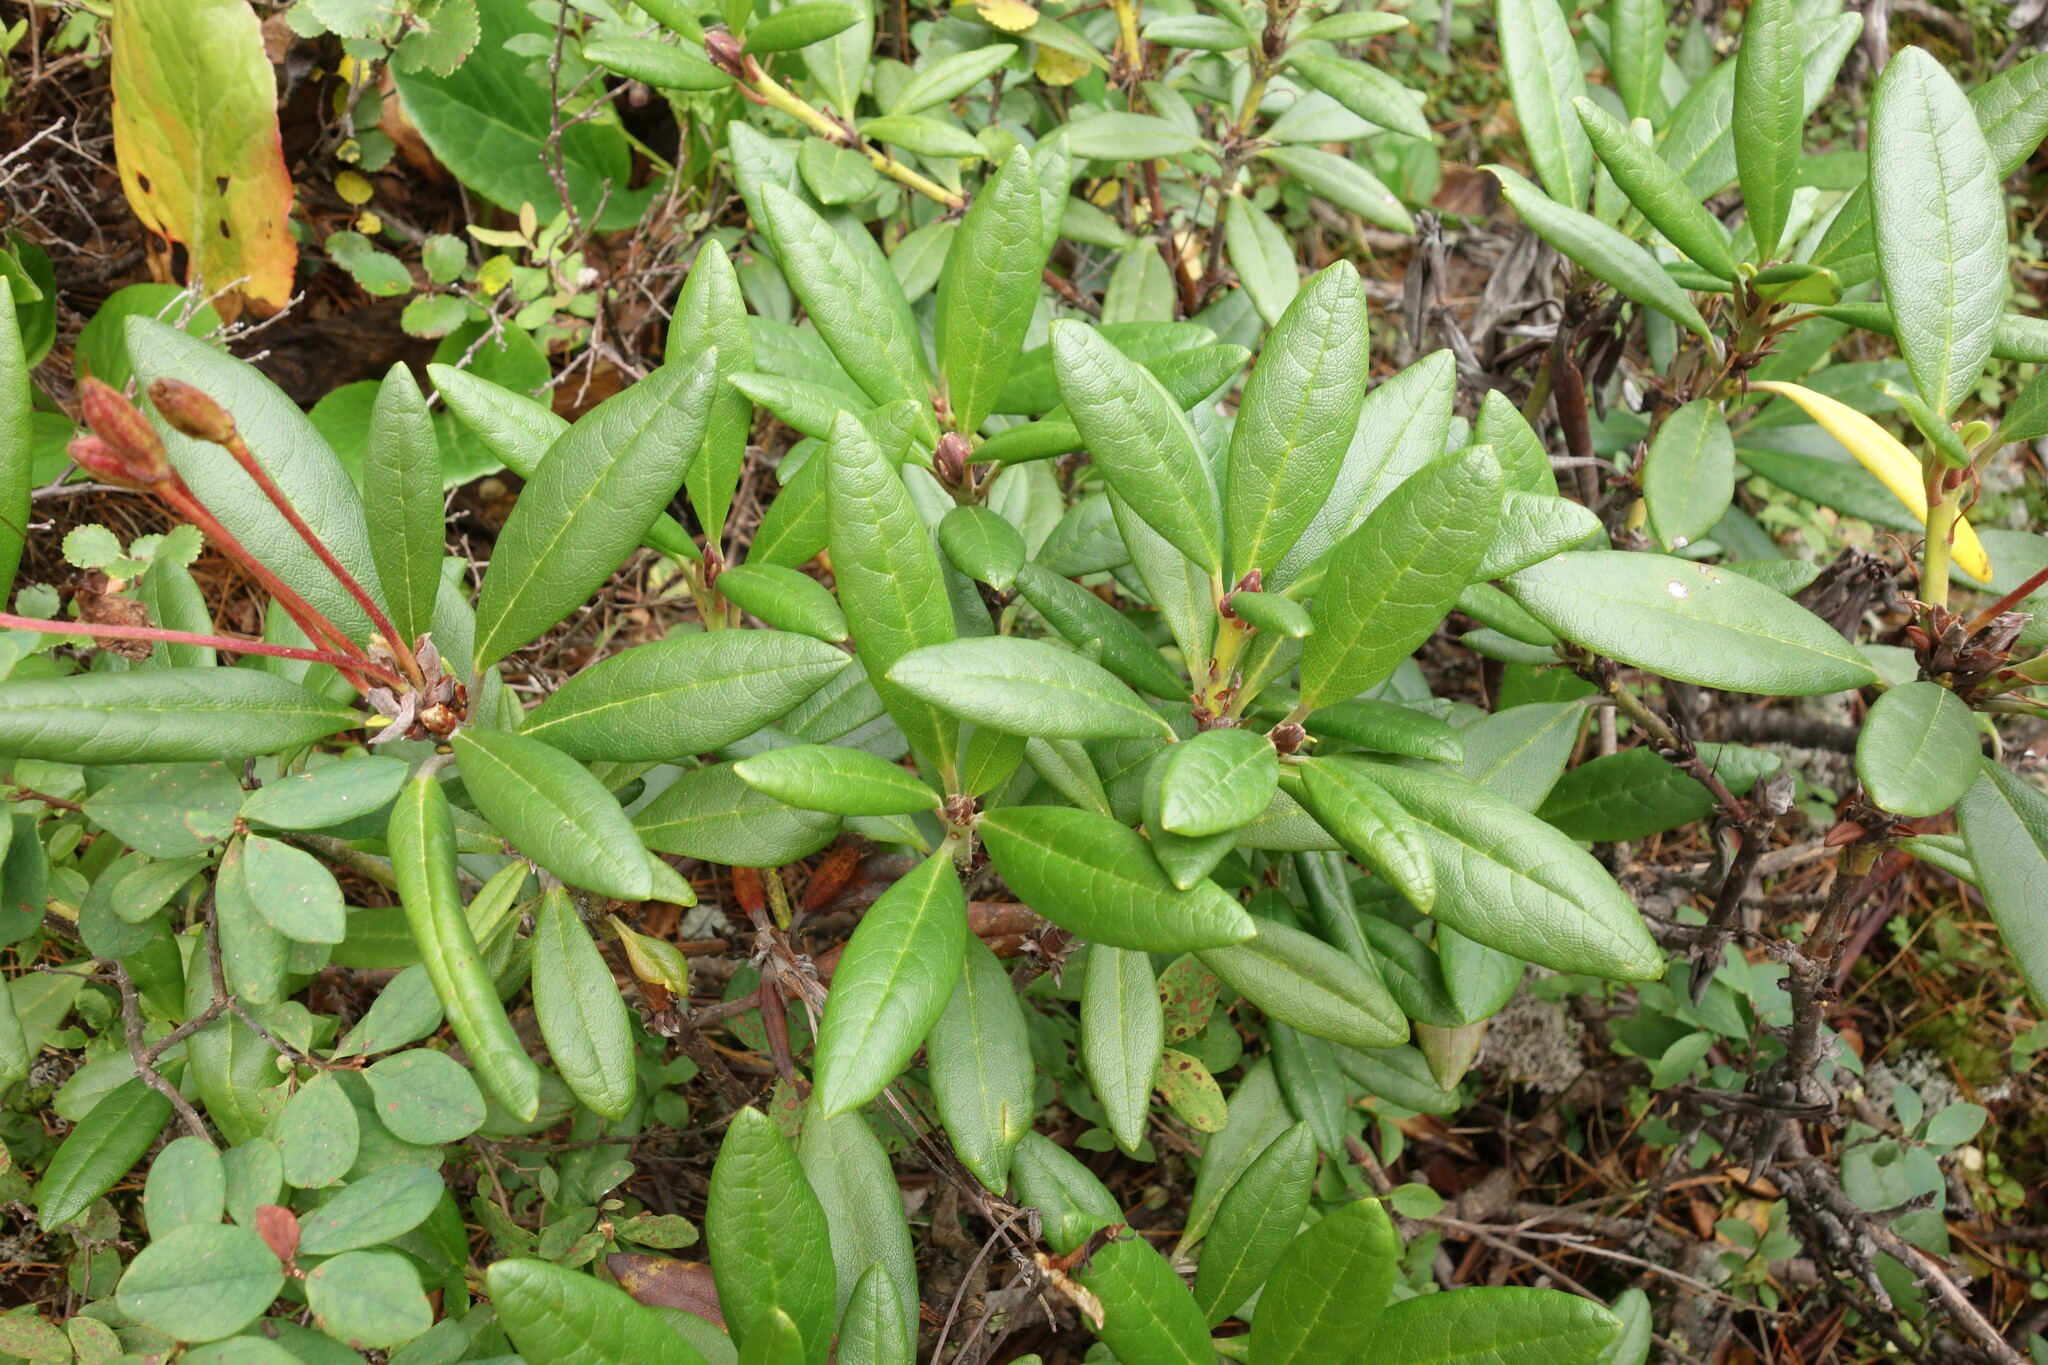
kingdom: Plantae
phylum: Tracheophyta
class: Magnoliopsida
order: Ericales
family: Ericaceae
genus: Rhododendron
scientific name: Rhododendron aureum
